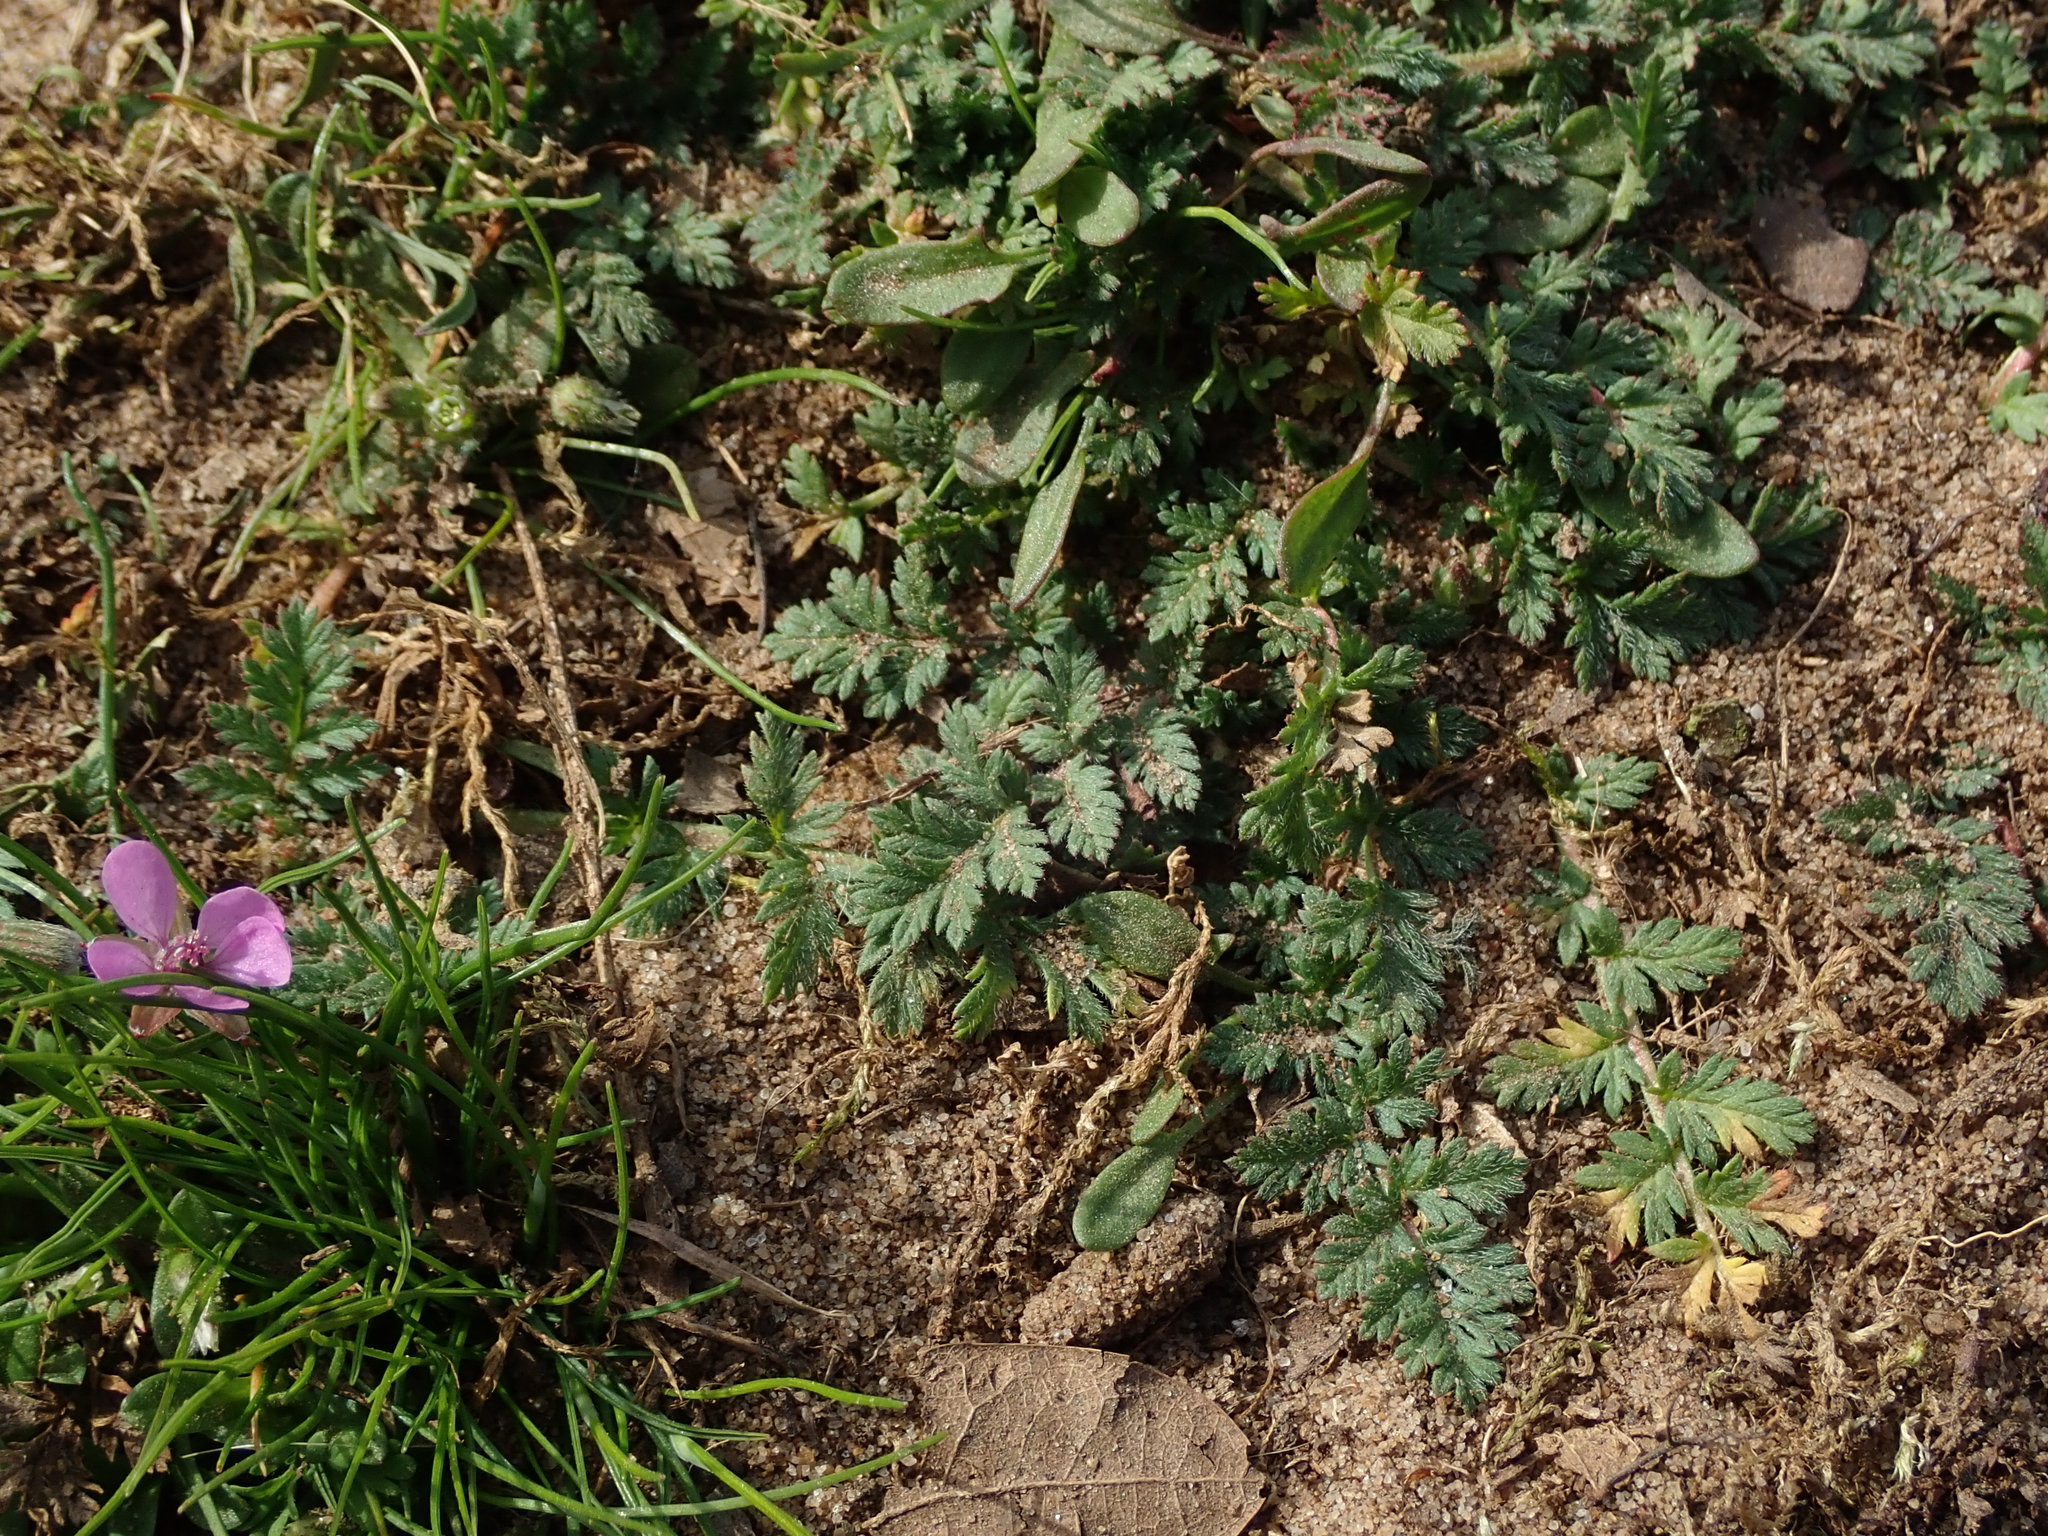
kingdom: Plantae
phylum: Tracheophyta
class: Magnoliopsida
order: Geraniales
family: Geraniaceae
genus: Erodium
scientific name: Erodium cicutarium
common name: Common stork's-bill
